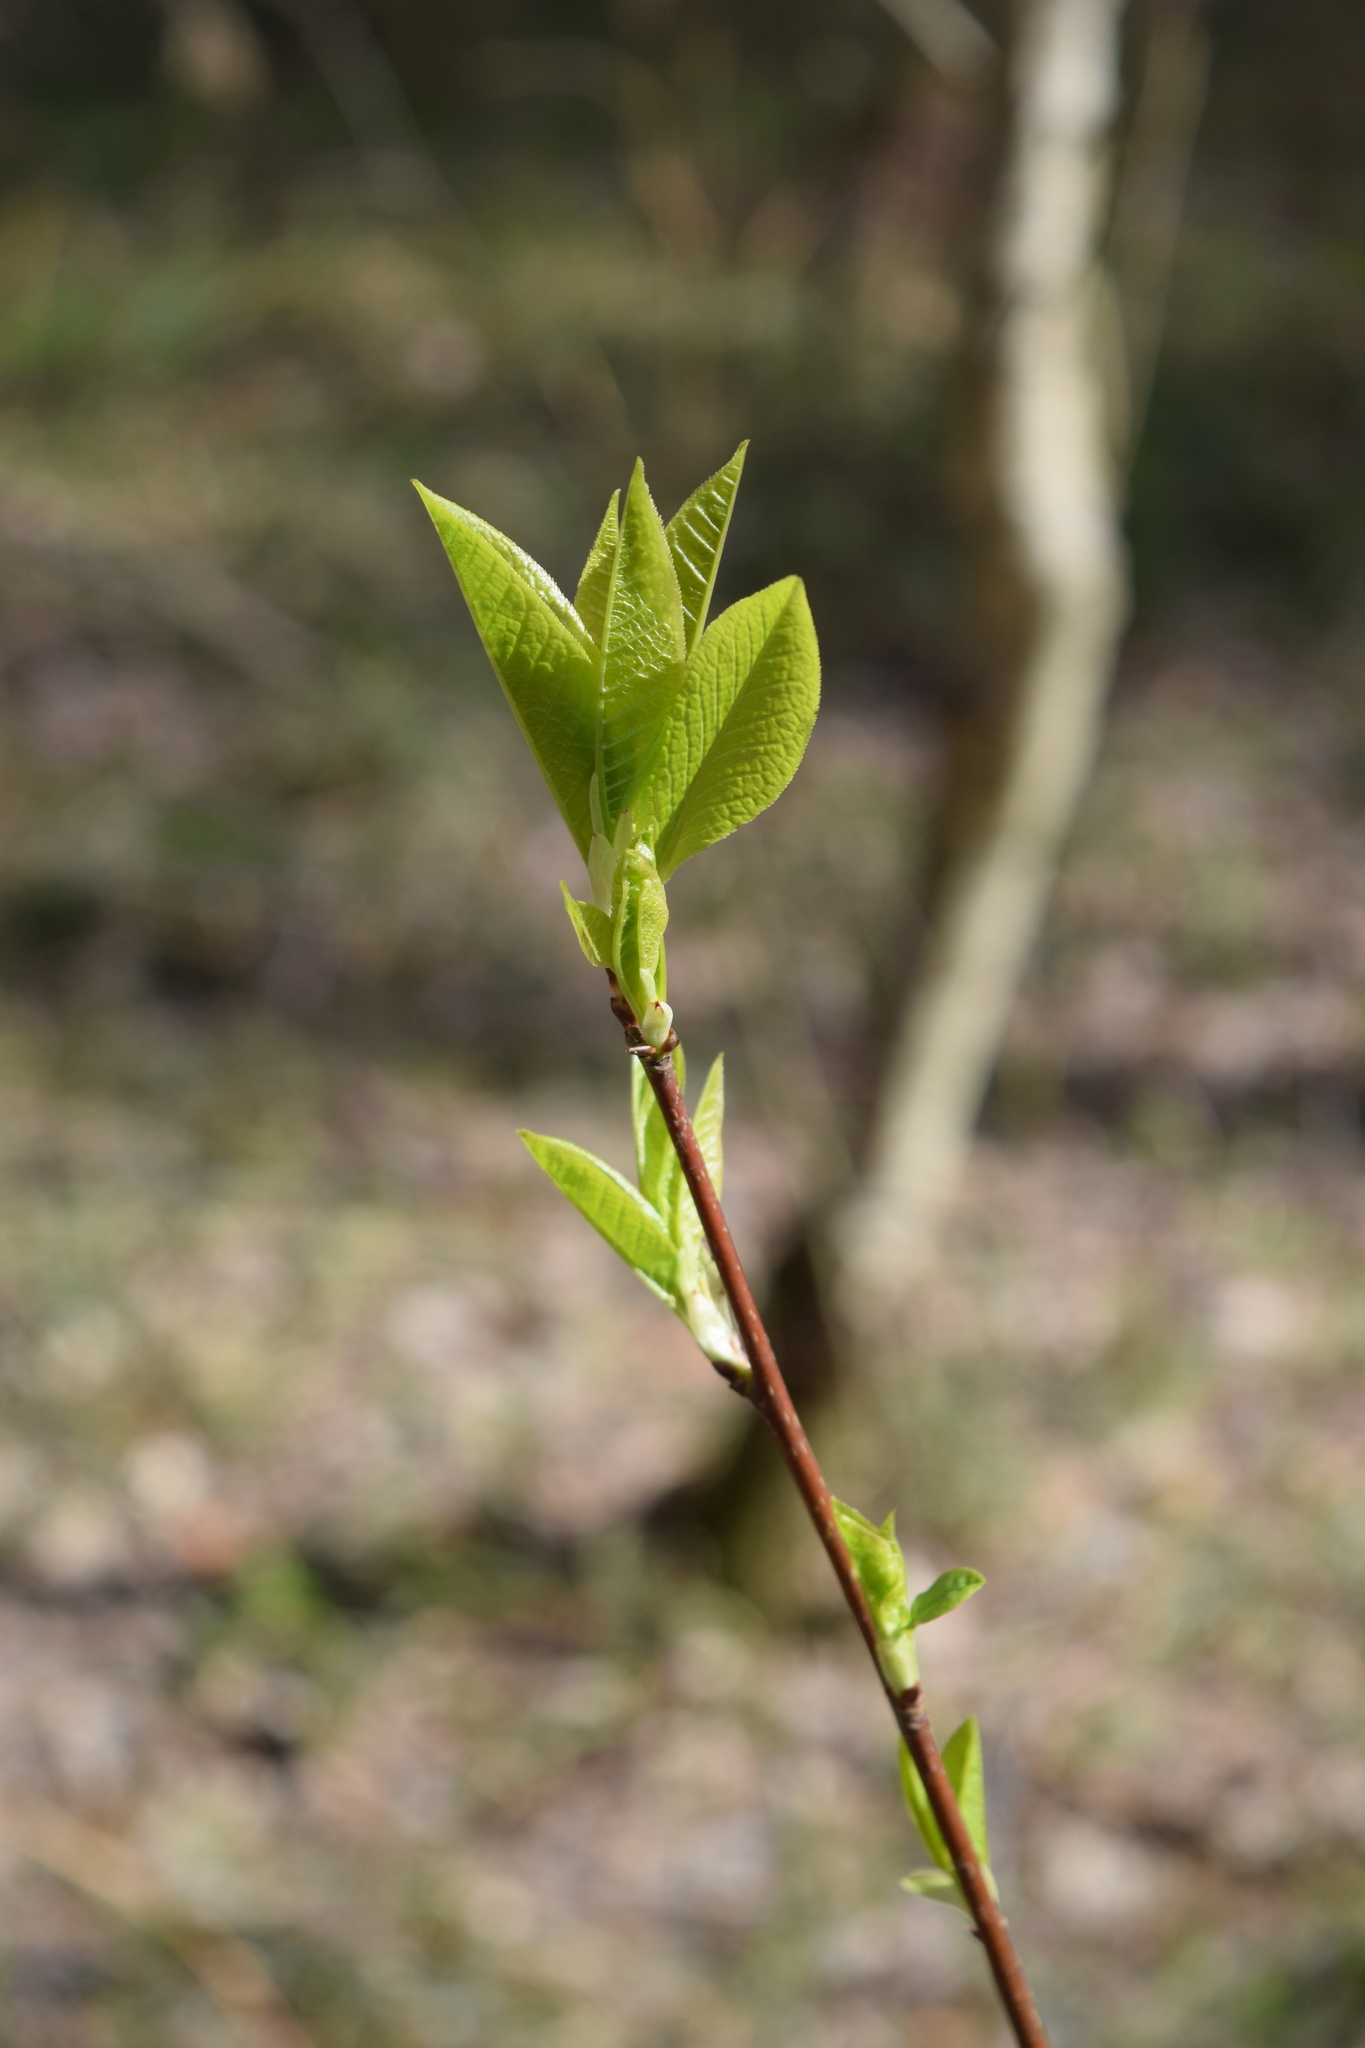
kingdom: Plantae
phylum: Tracheophyta
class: Magnoliopsida
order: Rosales
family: Rosaceae
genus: Prunus
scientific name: Prunus padus
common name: Bird cherry
